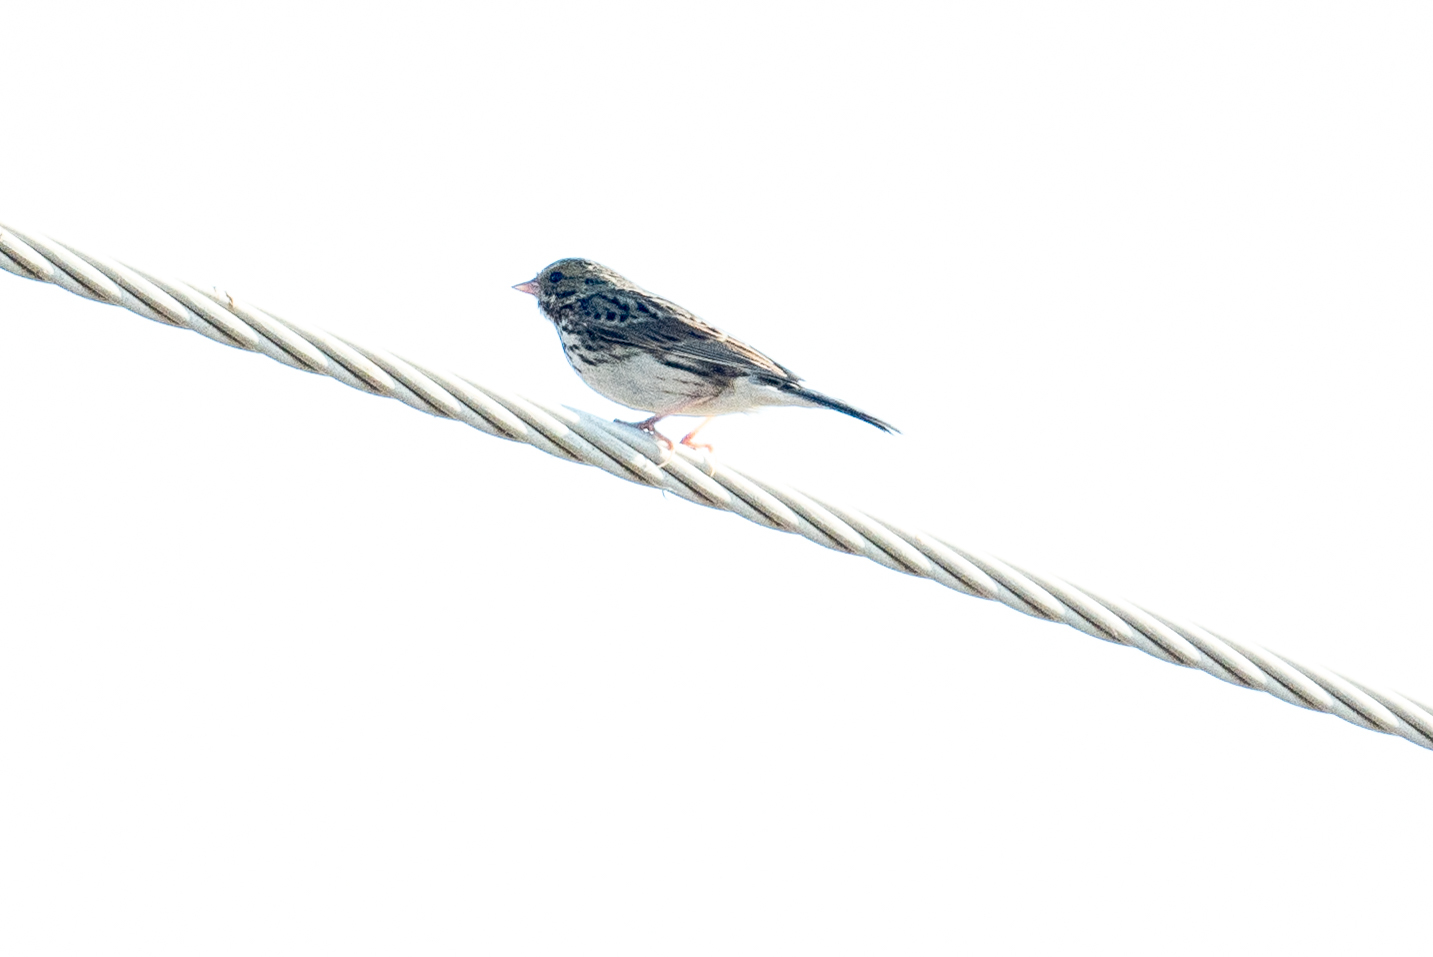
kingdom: Animalia
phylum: Chordata
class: Aves
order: Passeriformes
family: Passerellidae
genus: Passerculus
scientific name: Passerculus sandwichensis
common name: Savannah sparrow
